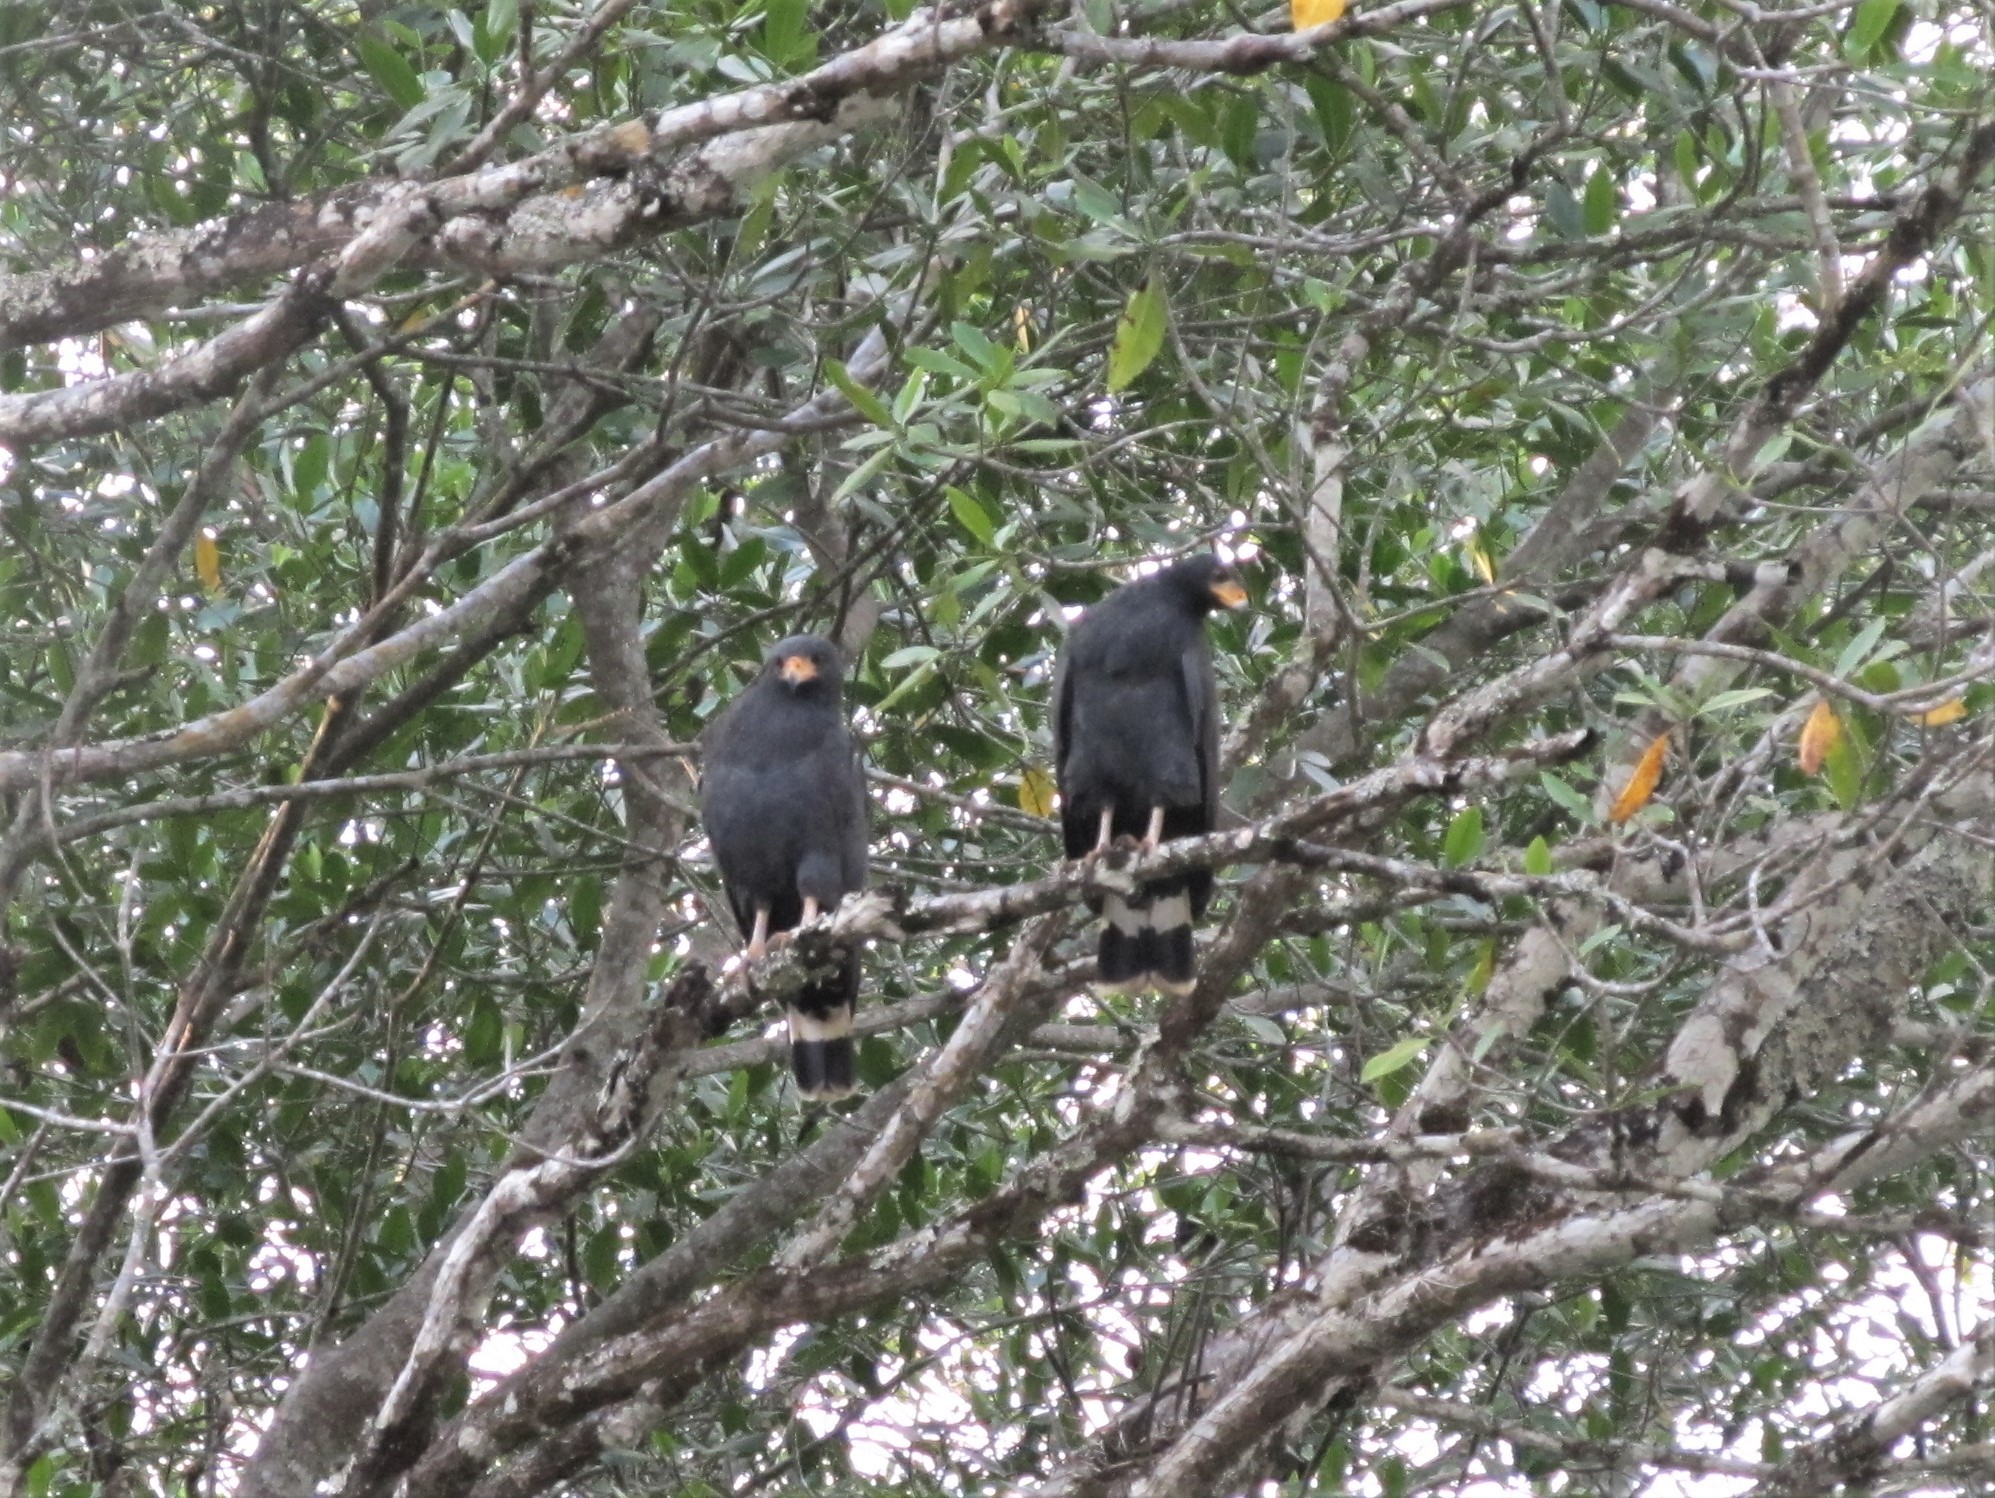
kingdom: Animalia
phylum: Chordata
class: Aves
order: Accipitriformes
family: Accipitridae
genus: Buteogallus
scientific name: Buteogallus anthracinus
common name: Common black hawk
